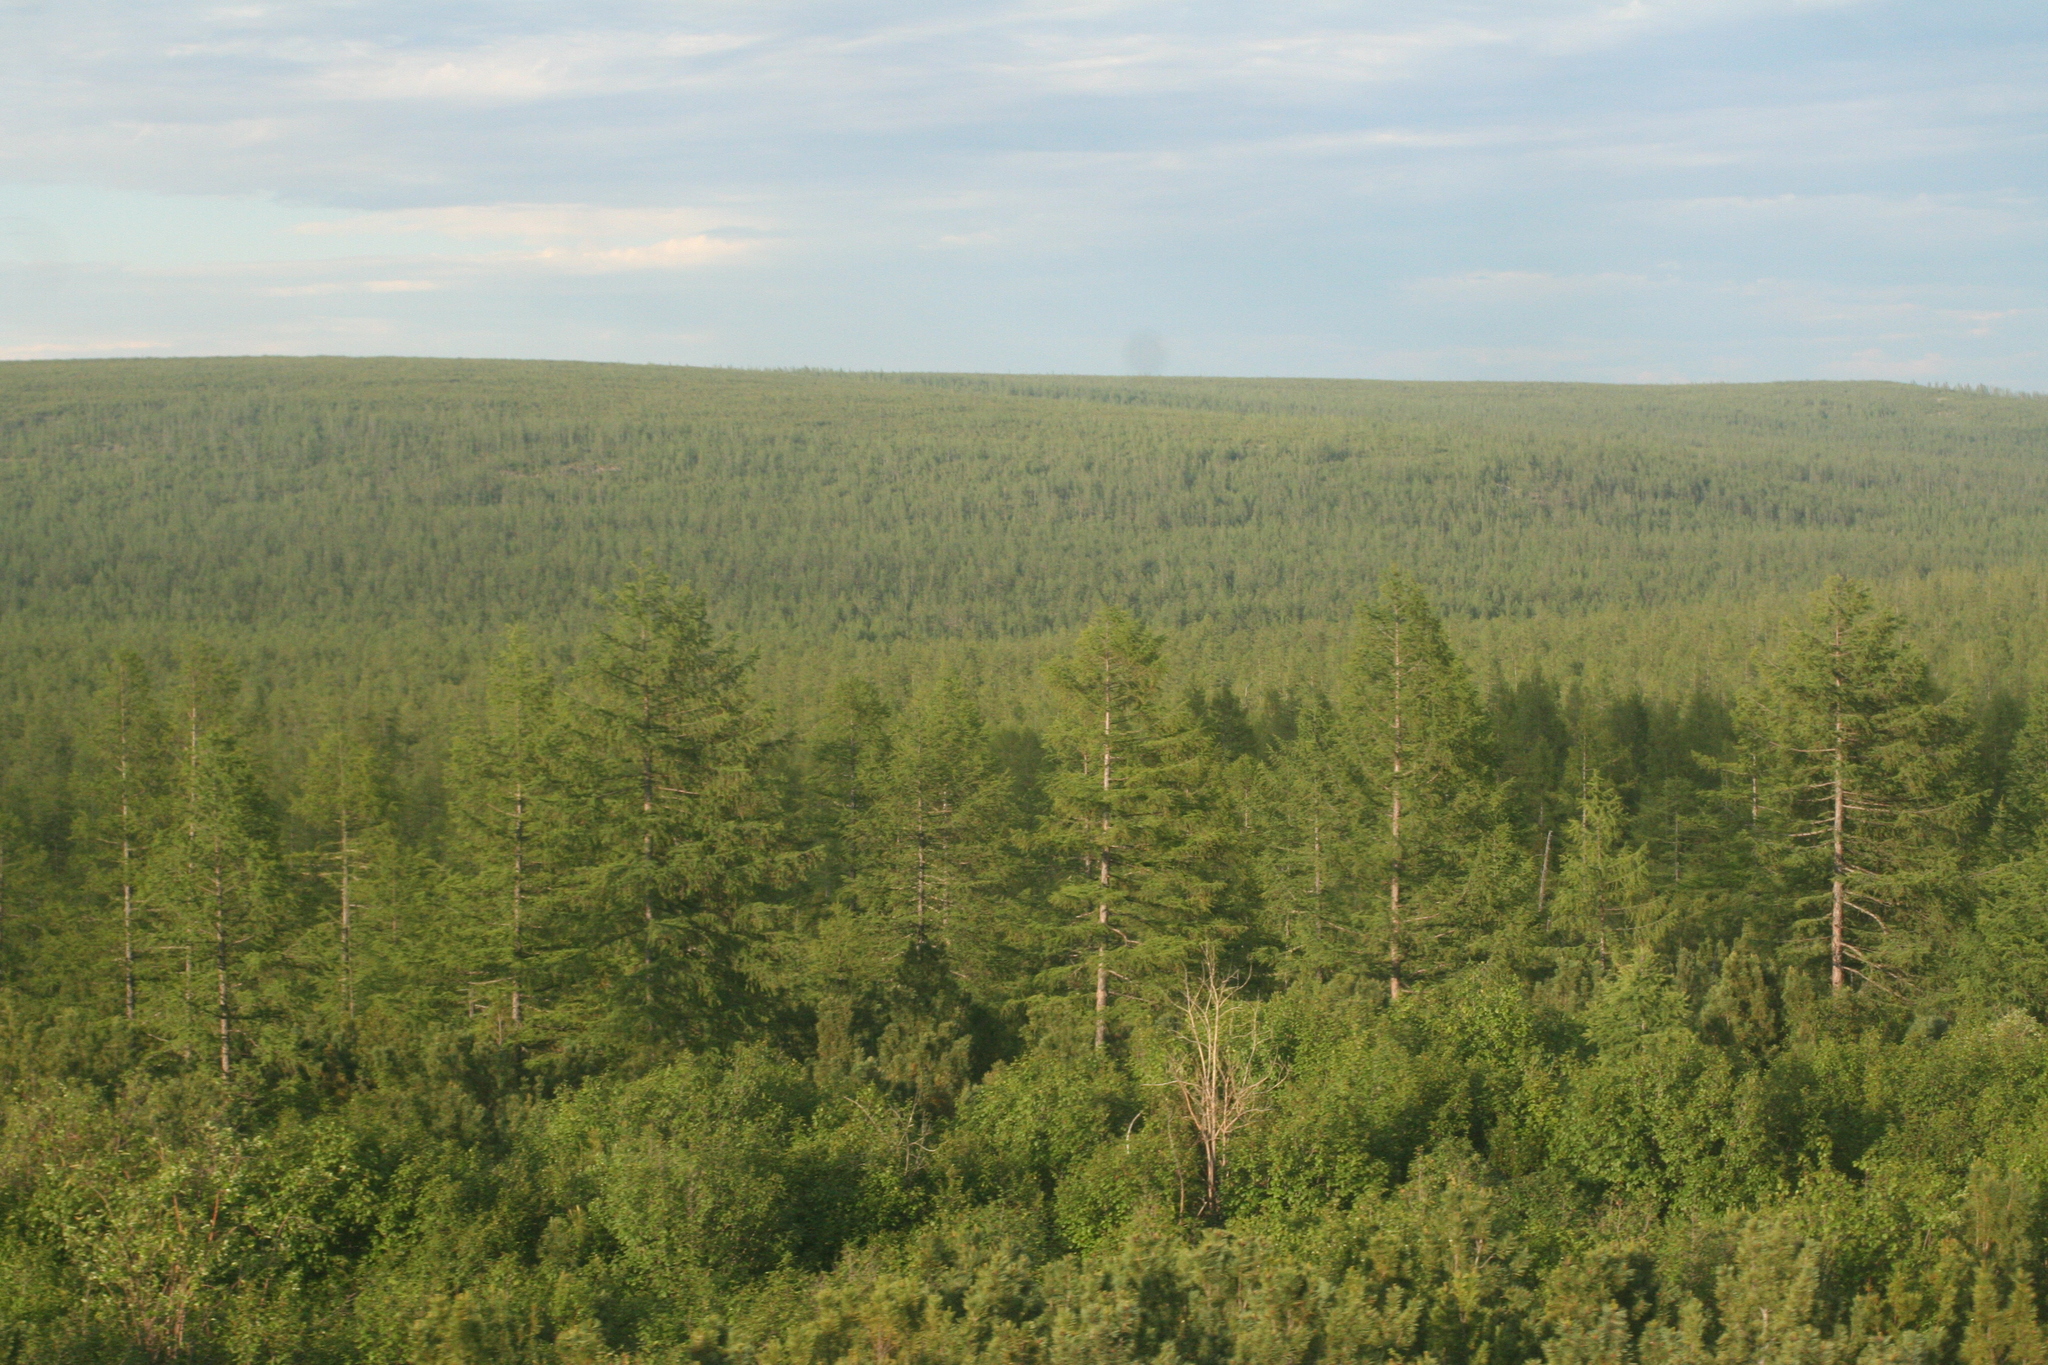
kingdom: Plantae
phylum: Tracheophyta
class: Pinopsida
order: Pinales
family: Pinaceae
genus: Larix
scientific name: Larix gmelinii
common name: Dahurian larch
